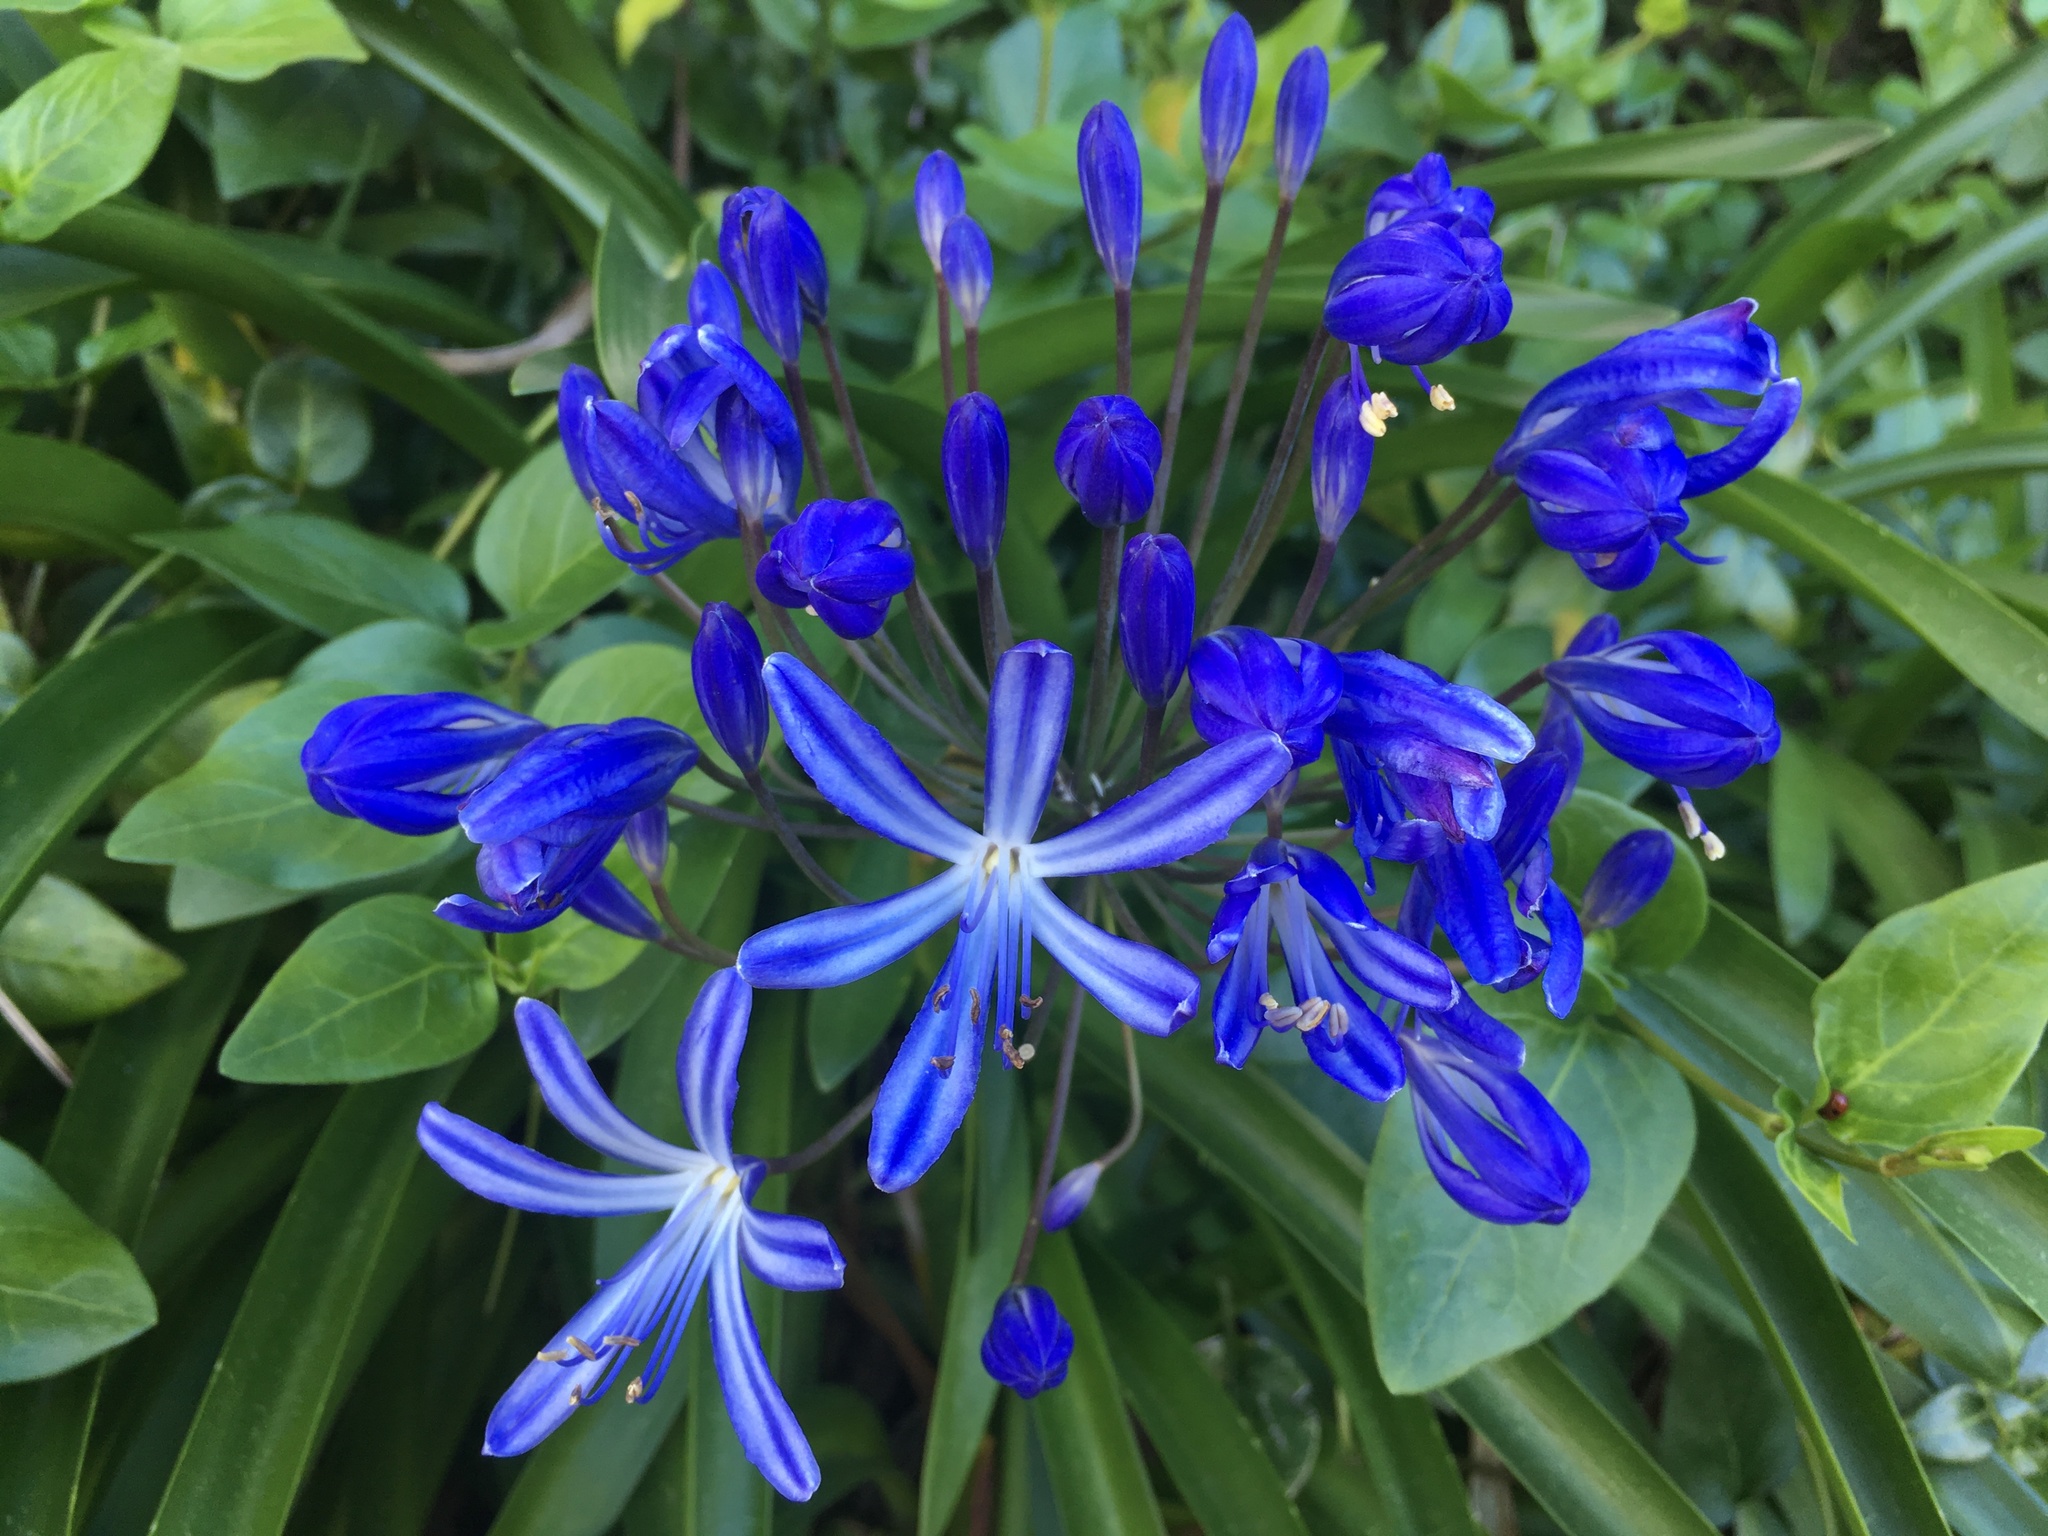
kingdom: Plantae
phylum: Tracheophyta
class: Liliopsida
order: Asparagales
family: Amaryllidaceae
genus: Agapanthus
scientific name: Agapanthus praecox
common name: African-lily
